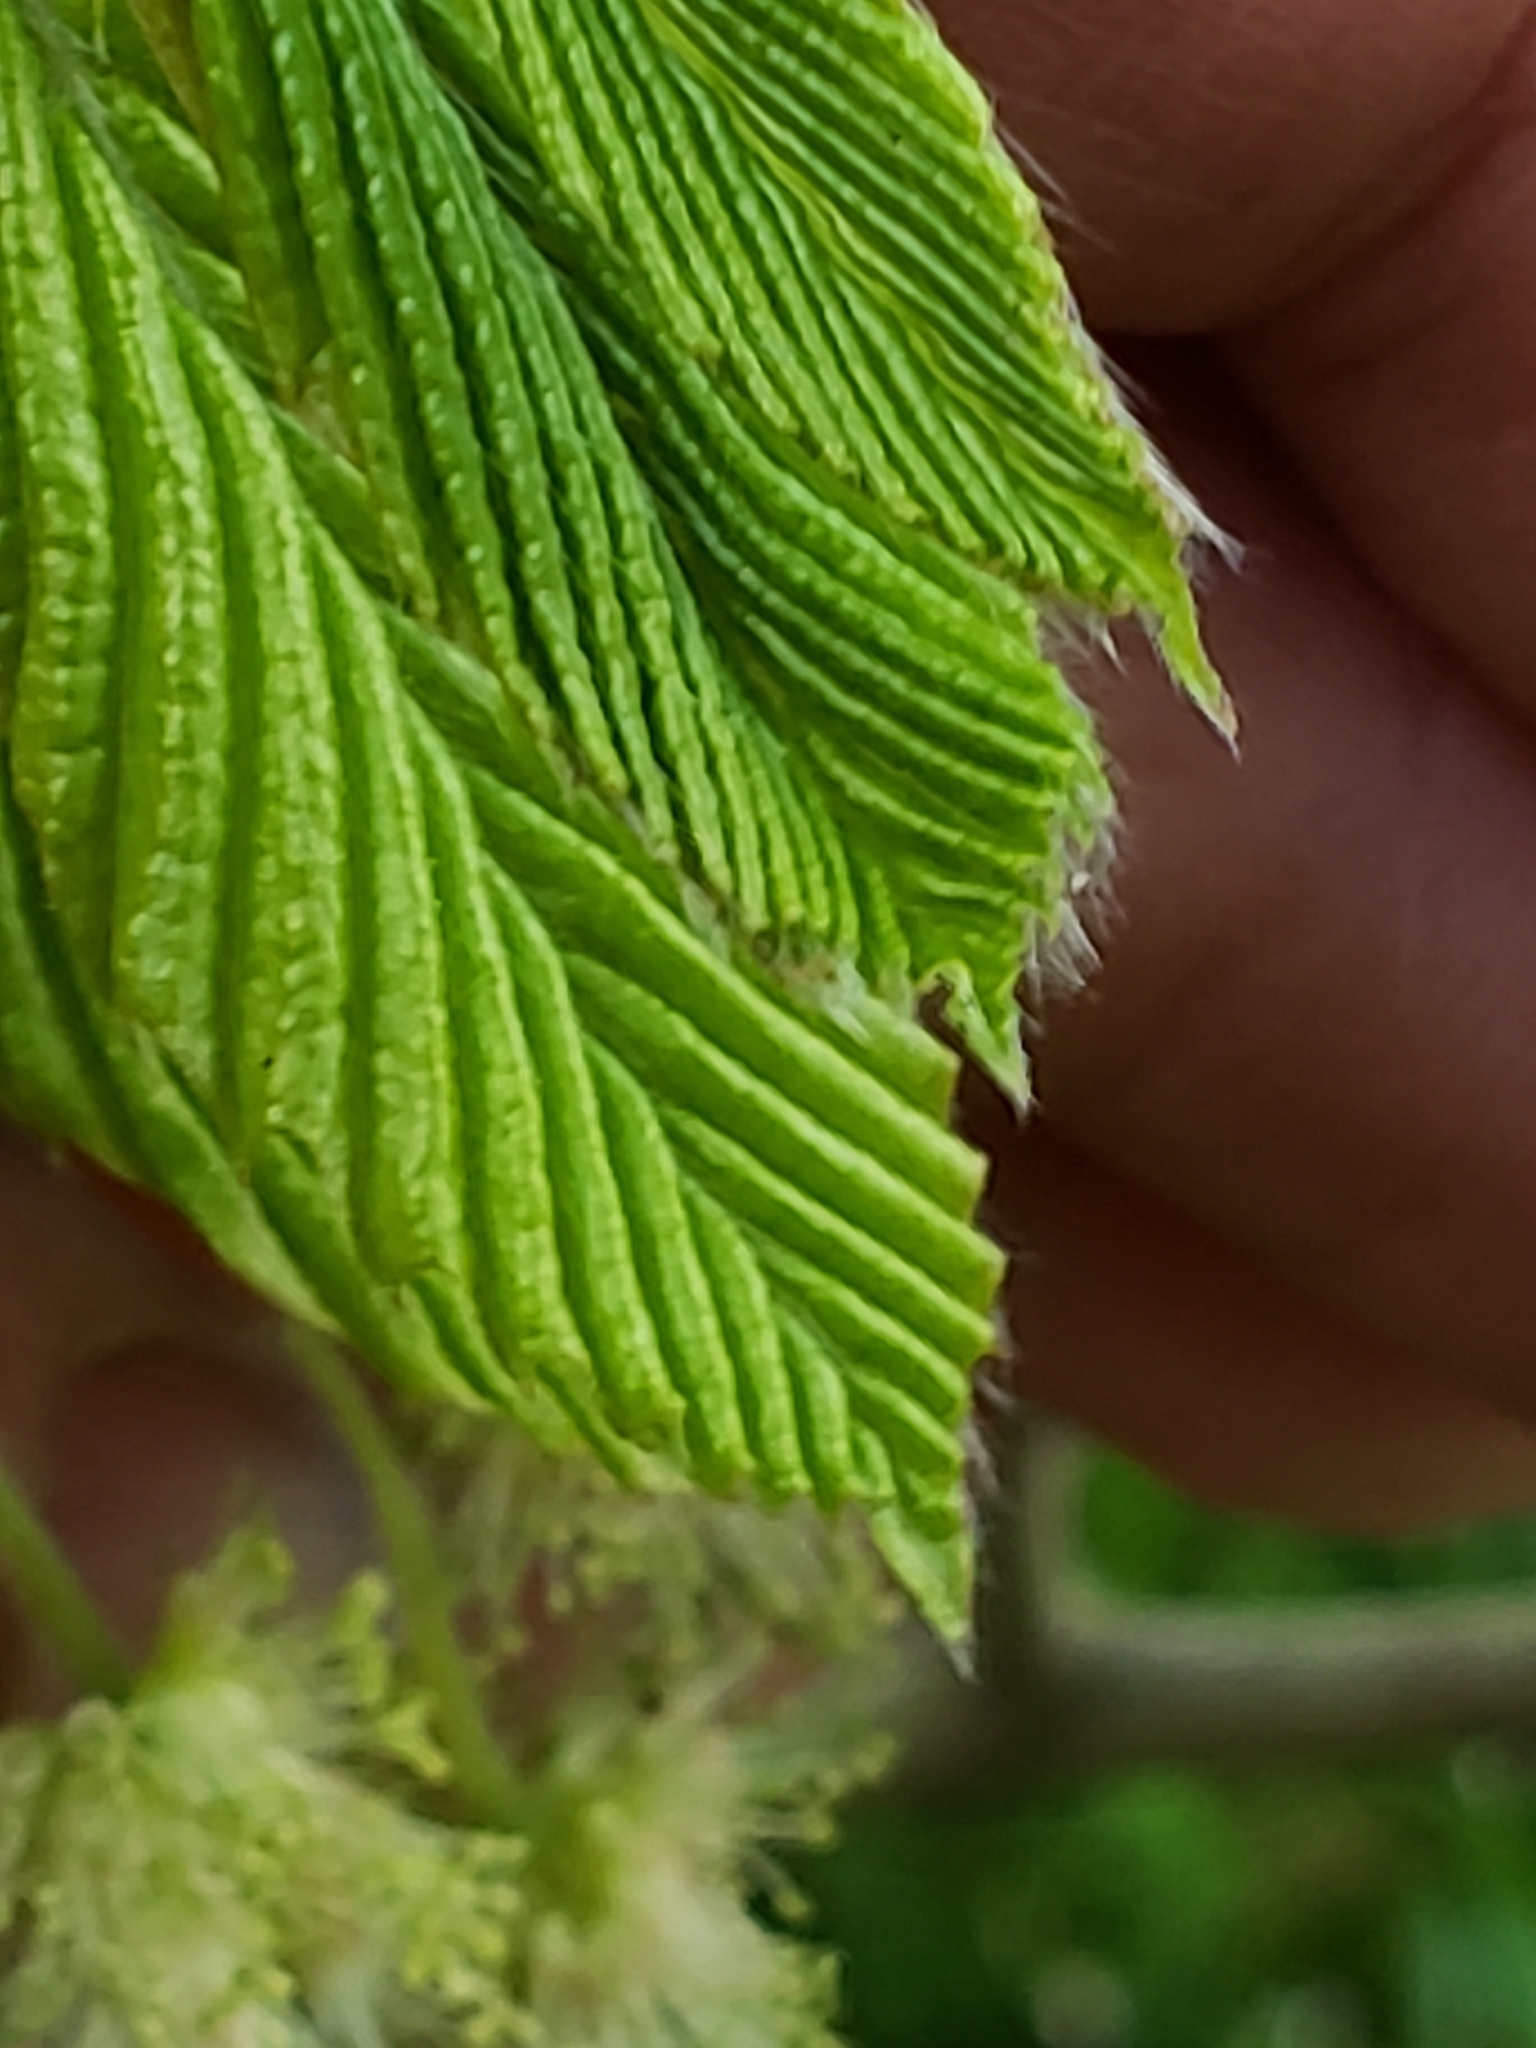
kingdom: Plantae
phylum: Tracheophyta
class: Magnoliopsida
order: Fagales
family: Fagaceae
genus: Fagus
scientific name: Fagus grandifolia
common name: American beech
